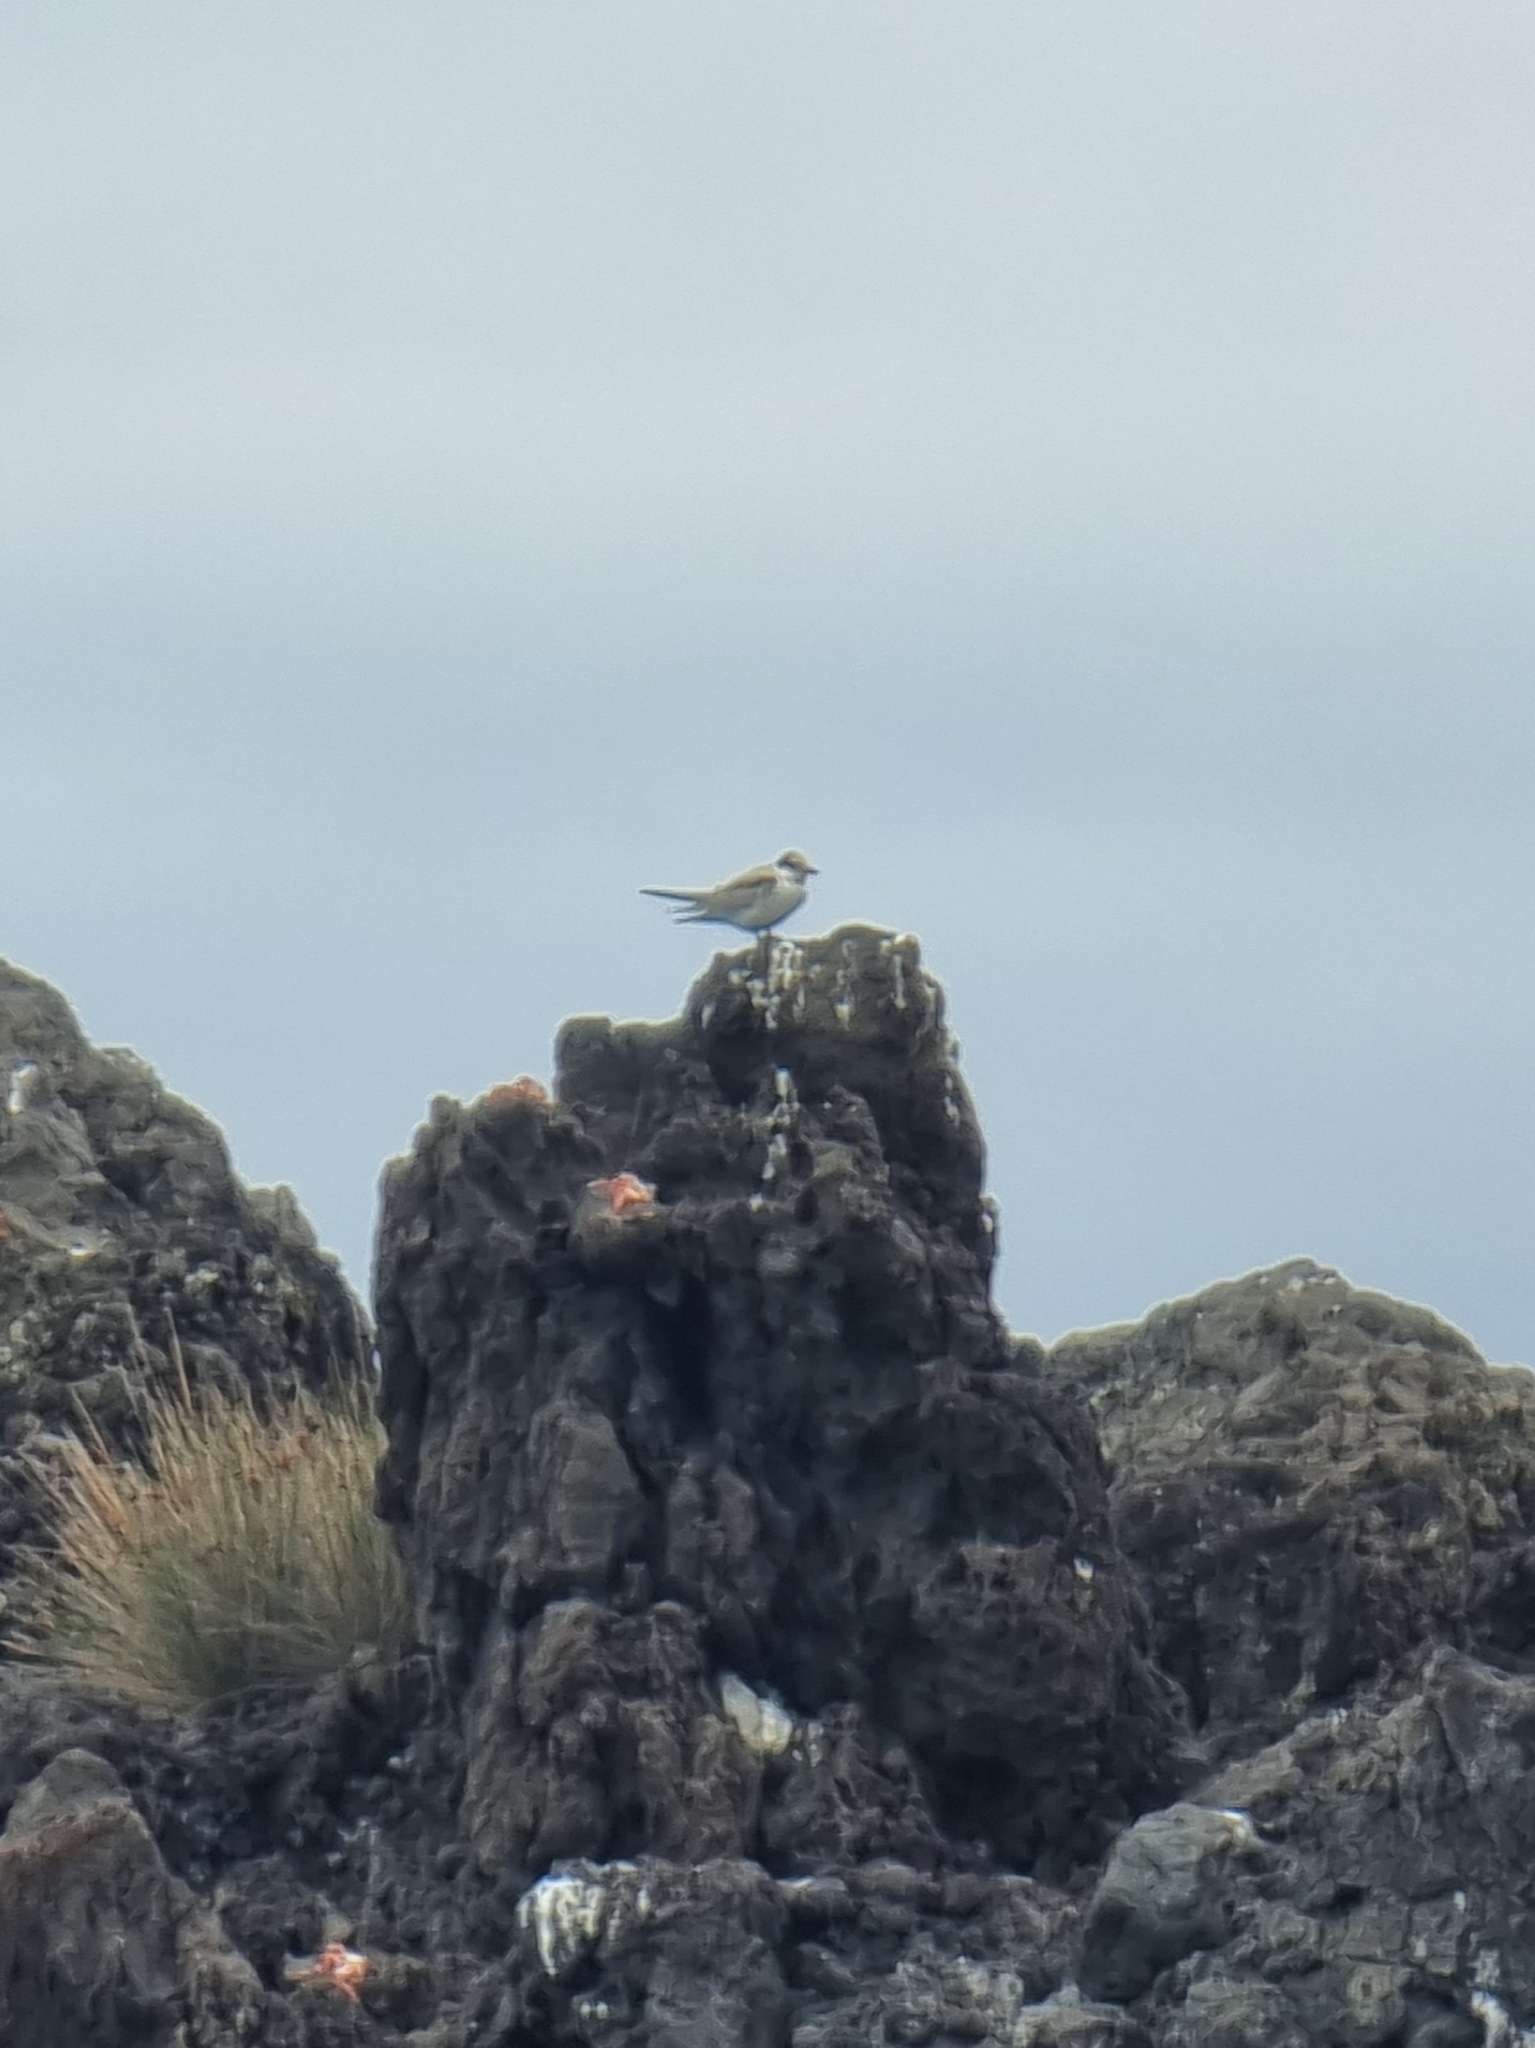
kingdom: Animalia
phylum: Chordata
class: Aves
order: Charadriiformes
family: Laridae
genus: Sterna
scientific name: Sterna hirundo
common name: Common tern
